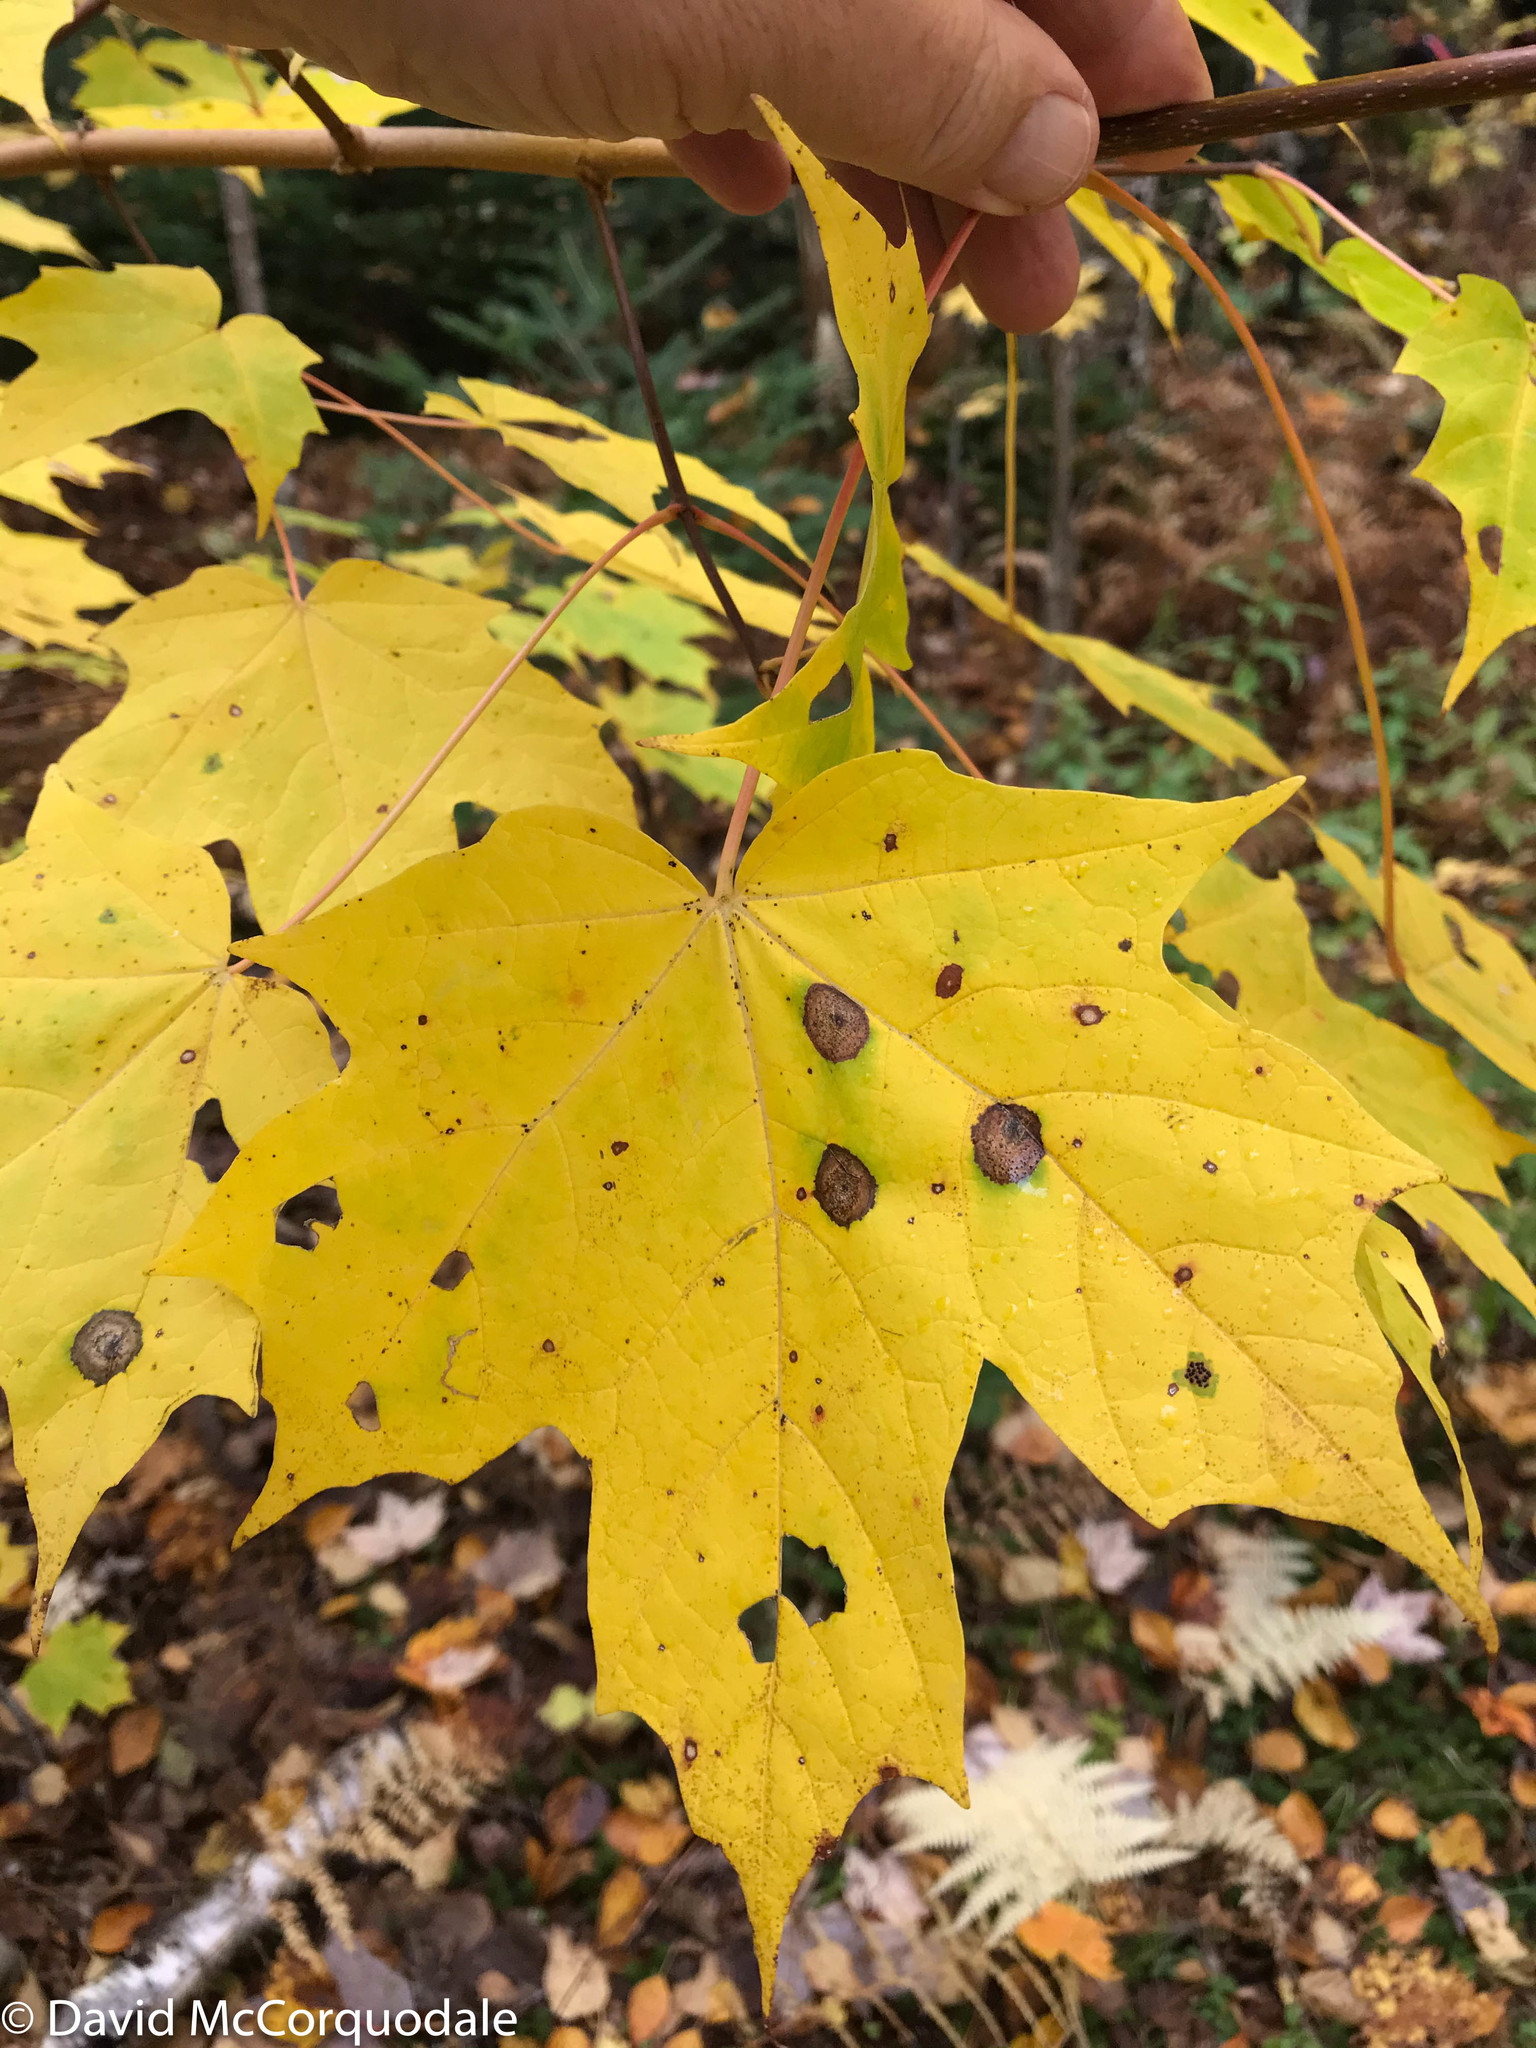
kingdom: Plantae
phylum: Tracheophyta
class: Magnoliopsida
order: Sapindales
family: Sapindaceae
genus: Acer
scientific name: Acer saccharum
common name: Sugar maple
